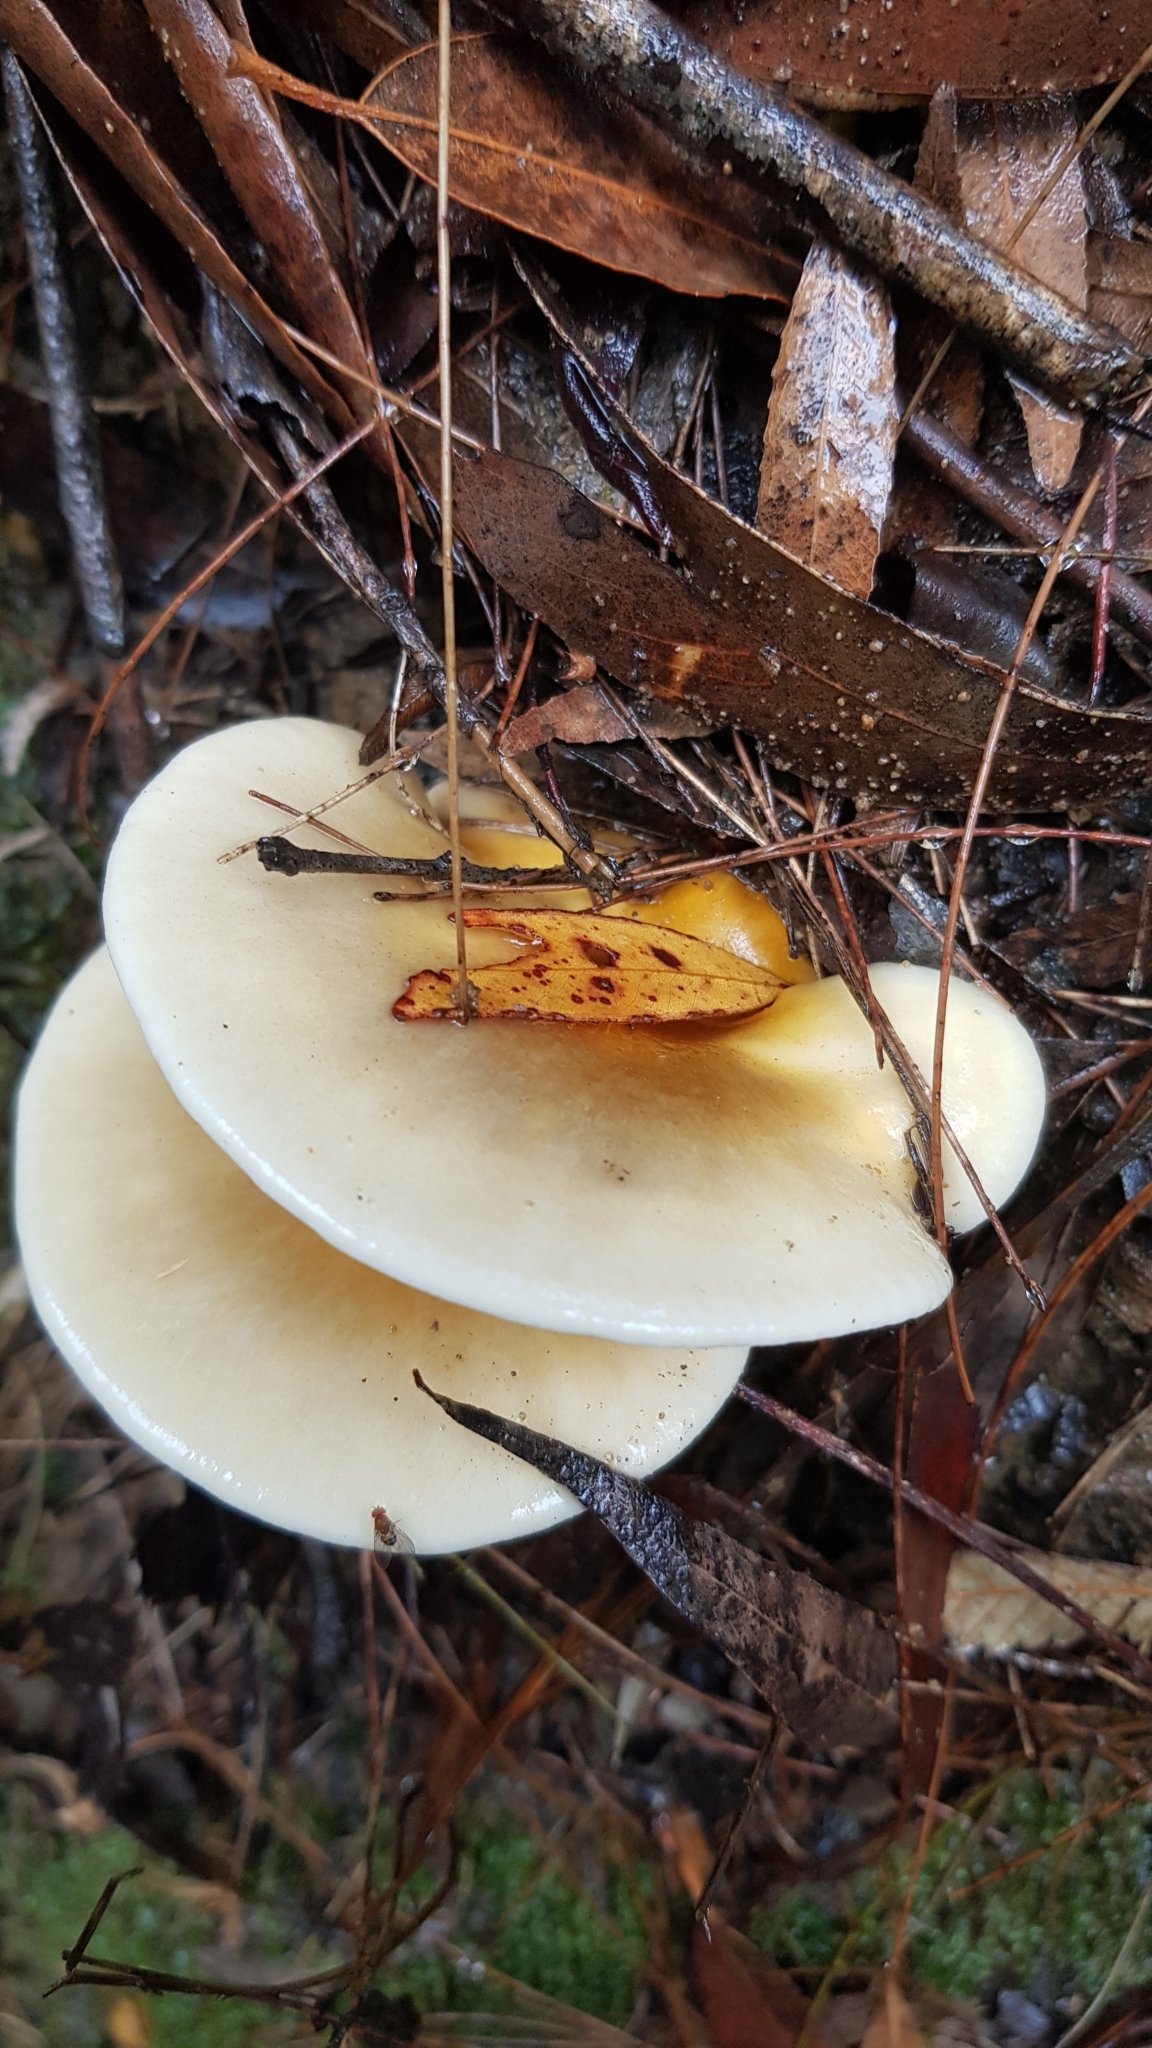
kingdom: Fungi
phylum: Basidiomycota
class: Agaricomycetes
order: Agaricales
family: Omphalotaceae
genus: Omphalotus
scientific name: Omphalotus nidiformis
